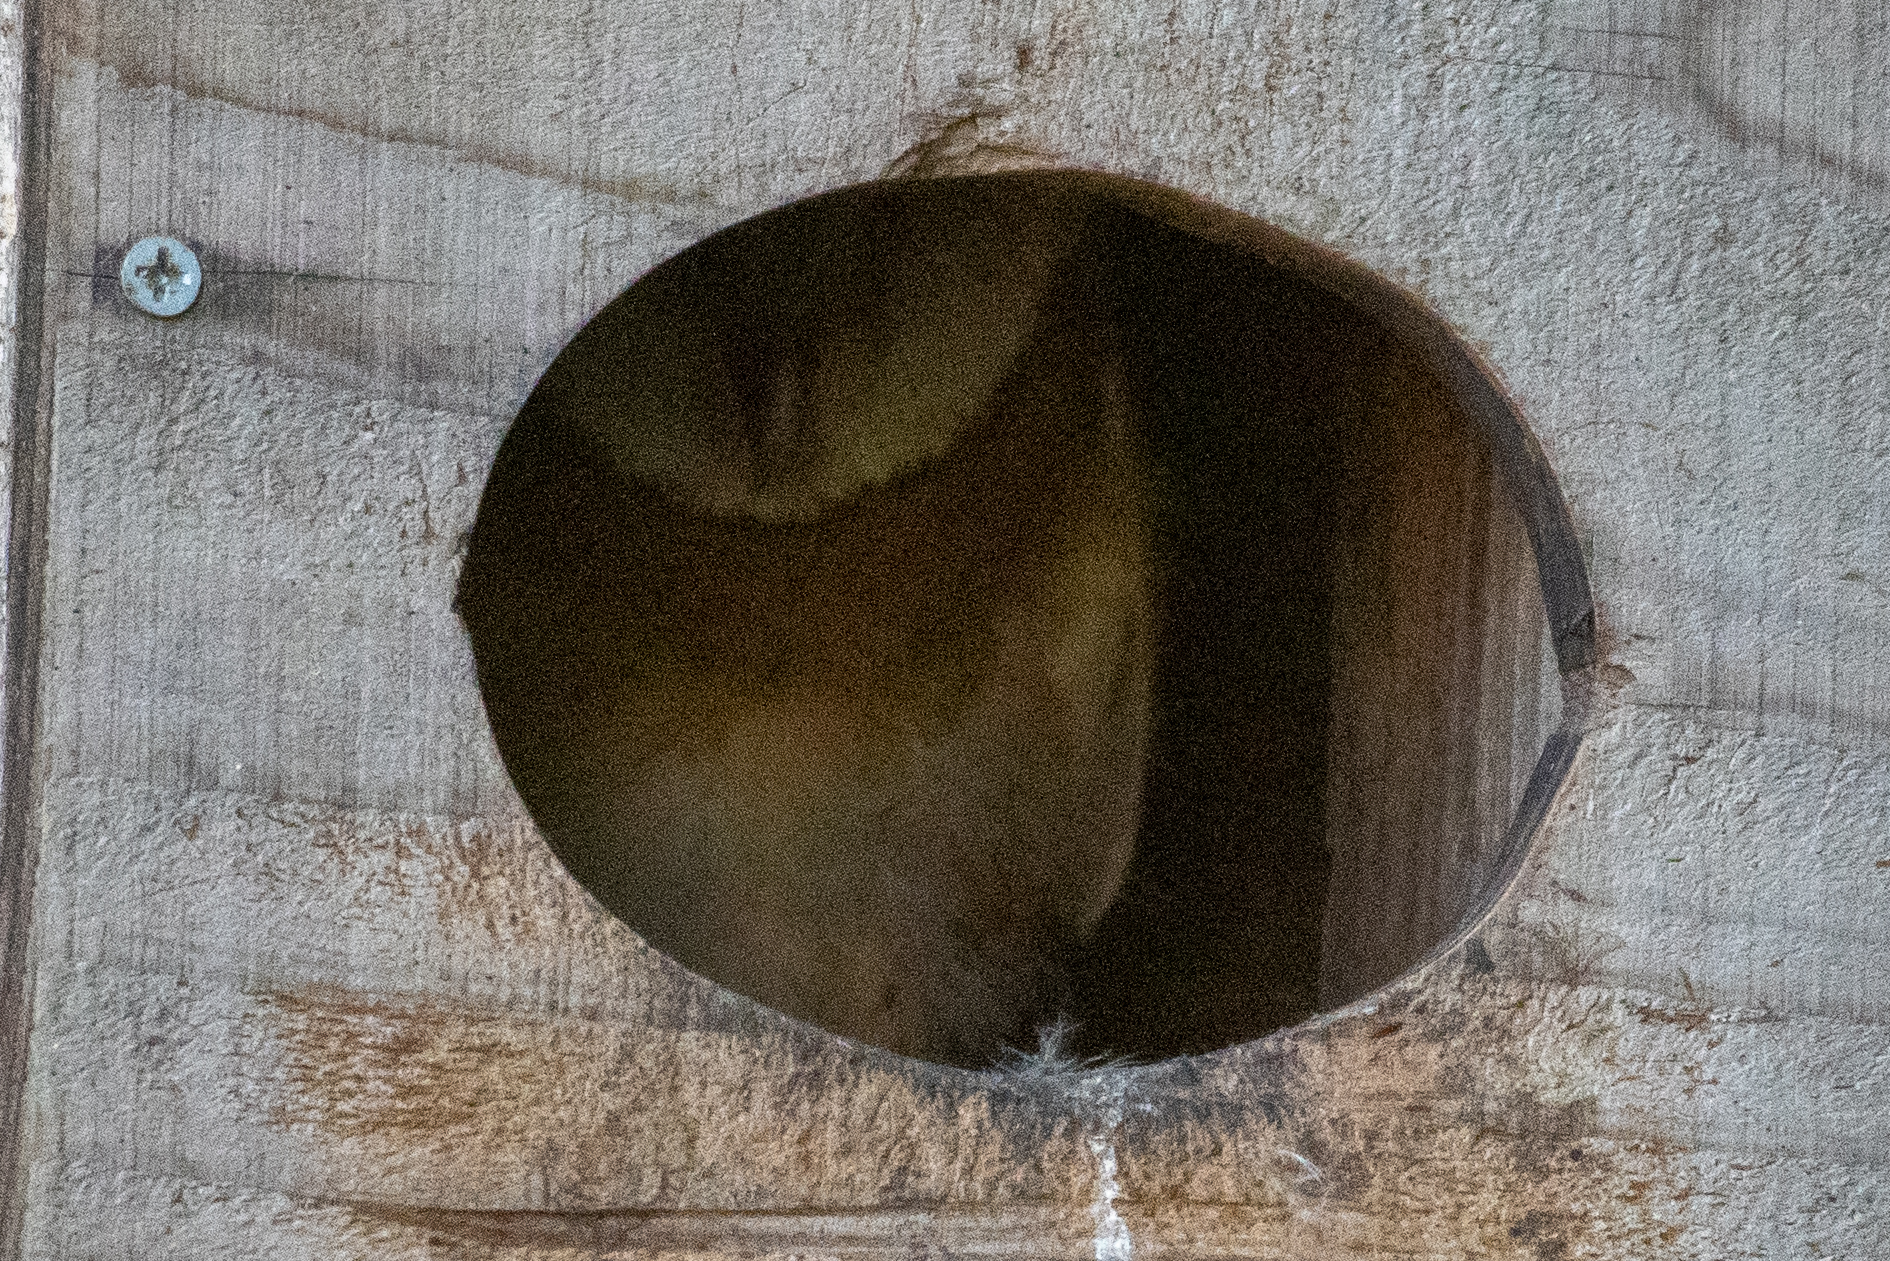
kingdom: Animalia
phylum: Chordata
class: Aves
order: Strigiformes
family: Tytonidae
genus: Tyto
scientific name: Tyto alba
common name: Barn owl
